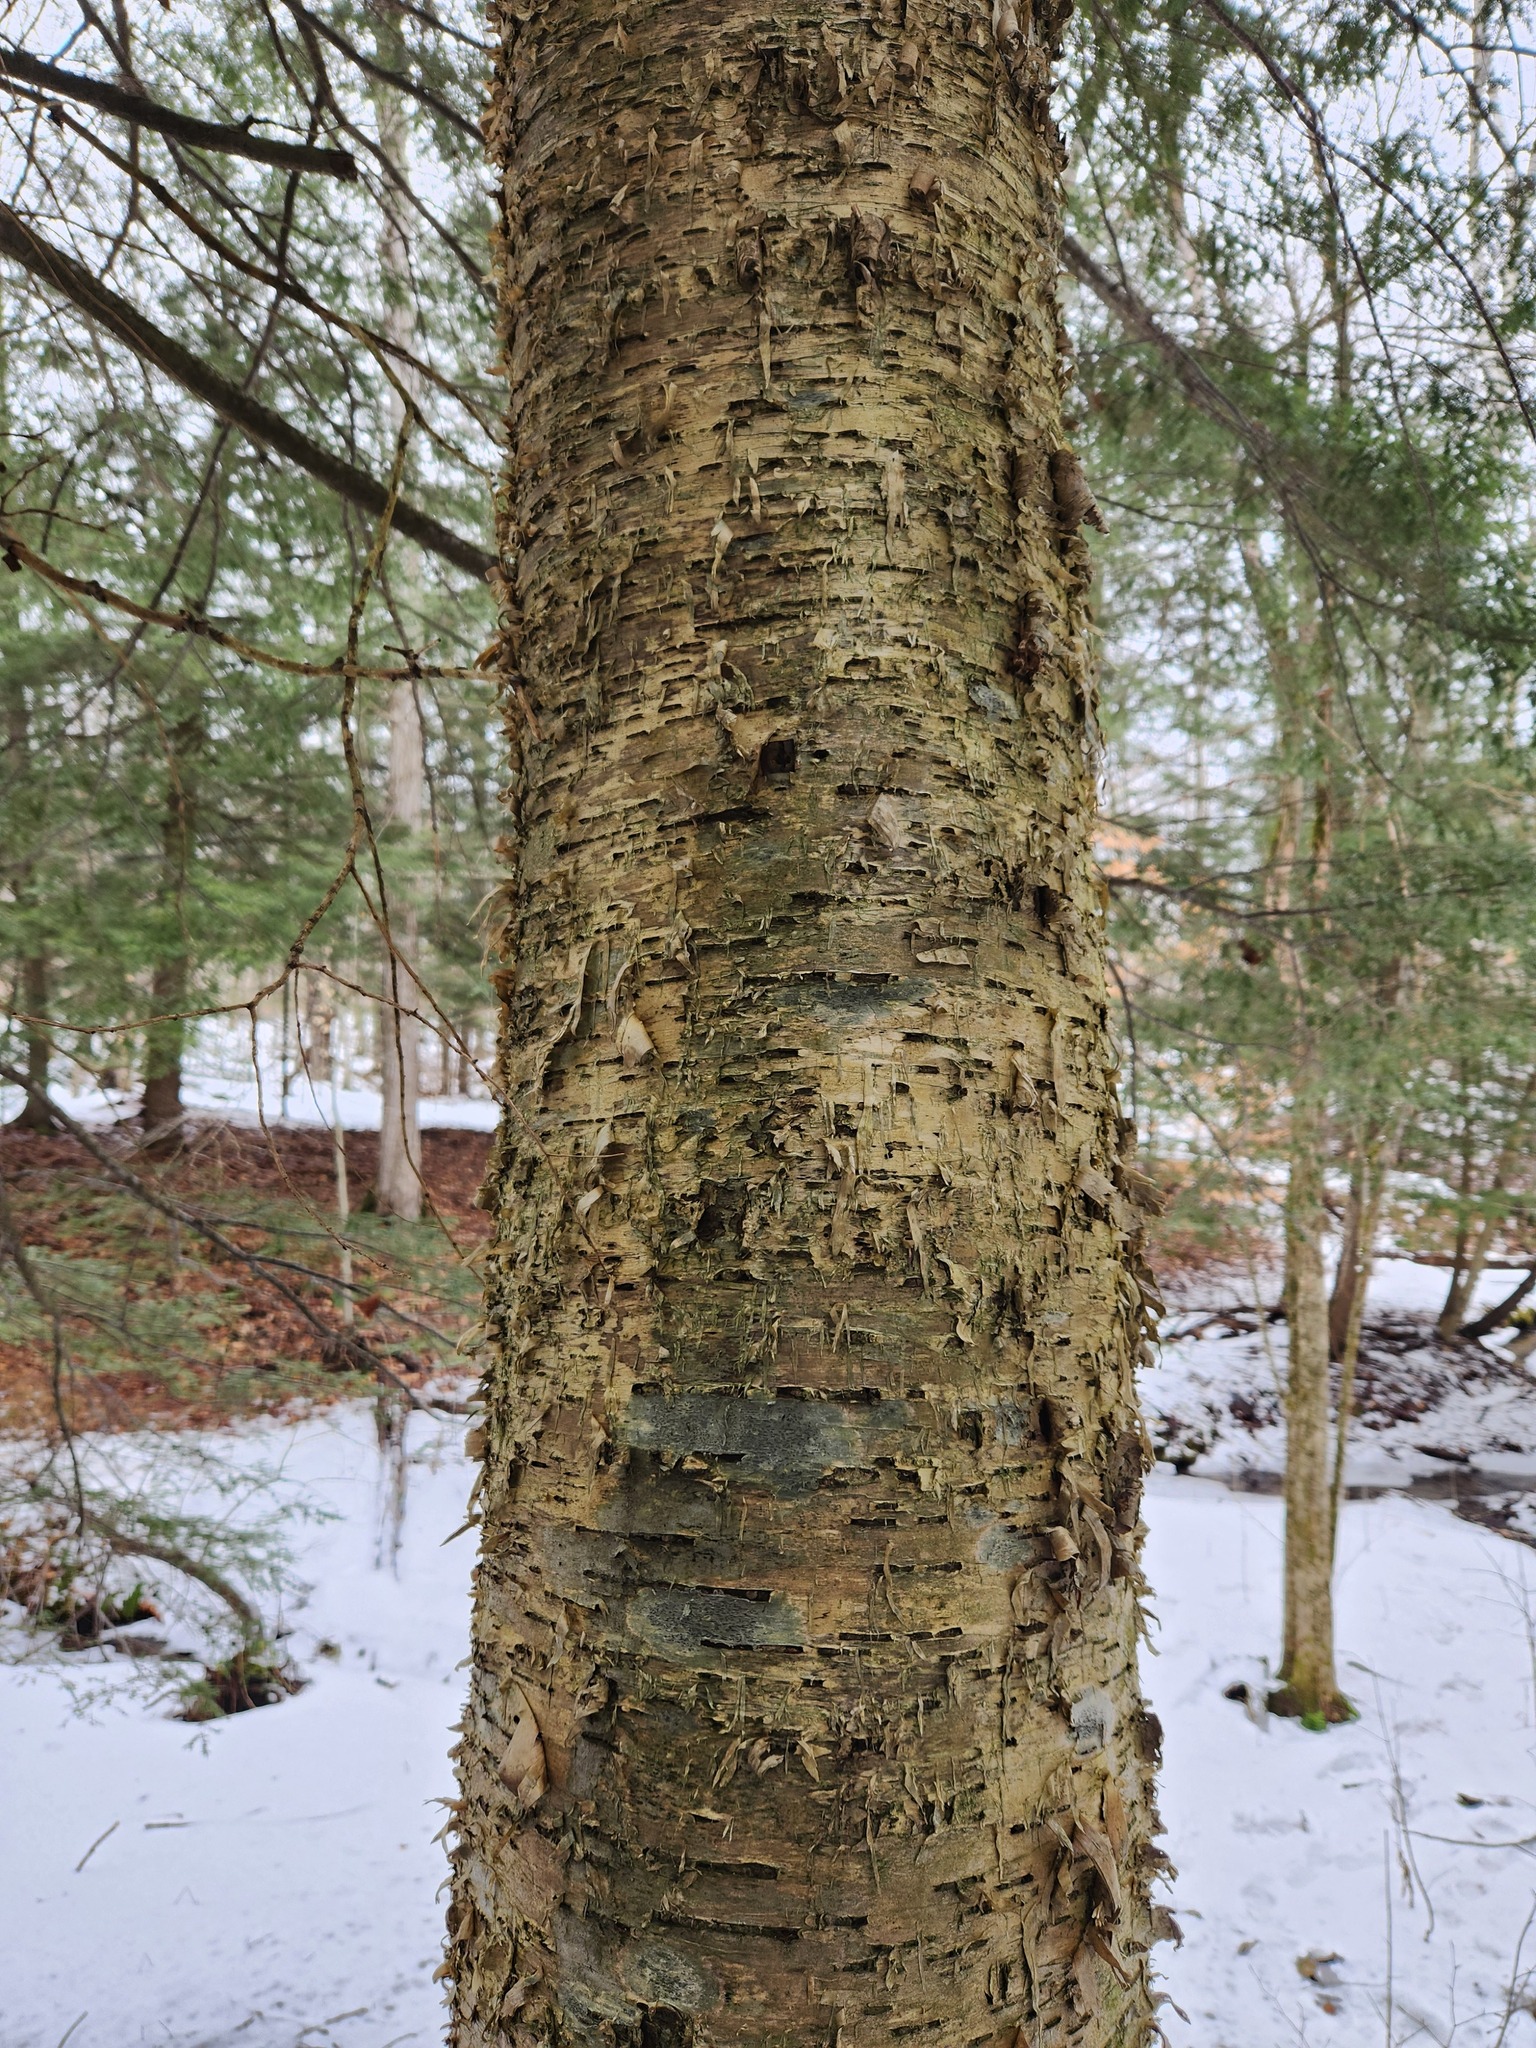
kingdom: Plantae
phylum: Tracheophyta
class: Magnoliopsida
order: Fagales
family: Betulaceae
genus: Betula
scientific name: Betula alleghaniensis
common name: Yellow birch
